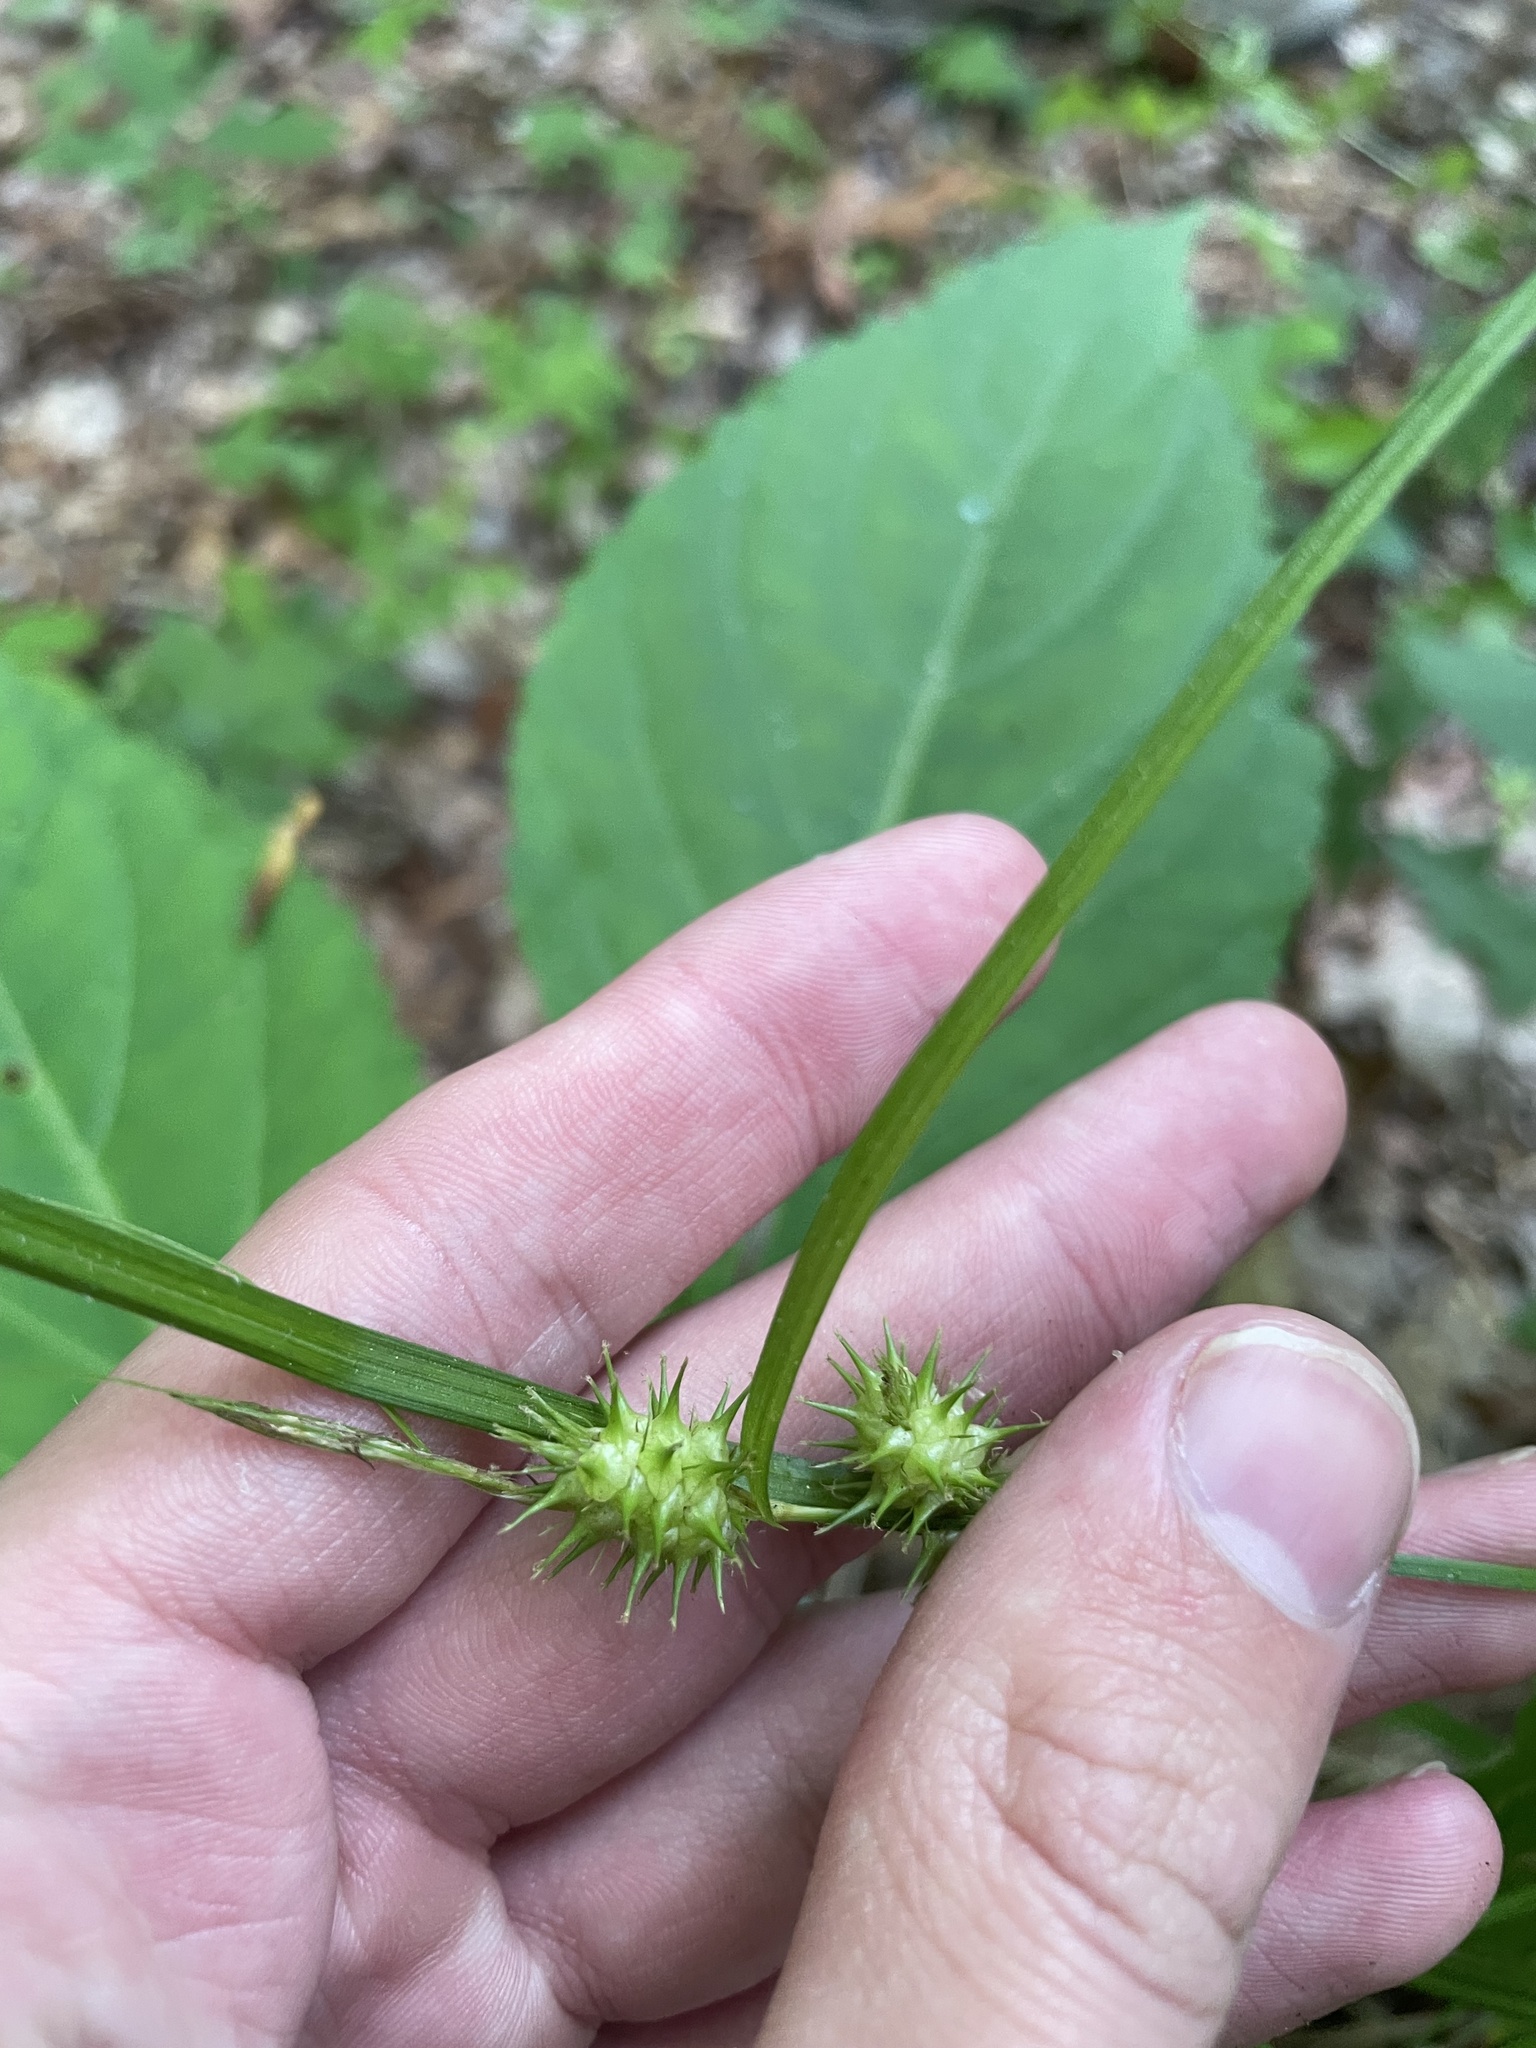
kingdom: Plantae
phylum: Tracheophyta
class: Liliopsida
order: Poales
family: Cyperaceae
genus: Carex
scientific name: Carex lurida
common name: Sallow sedge
